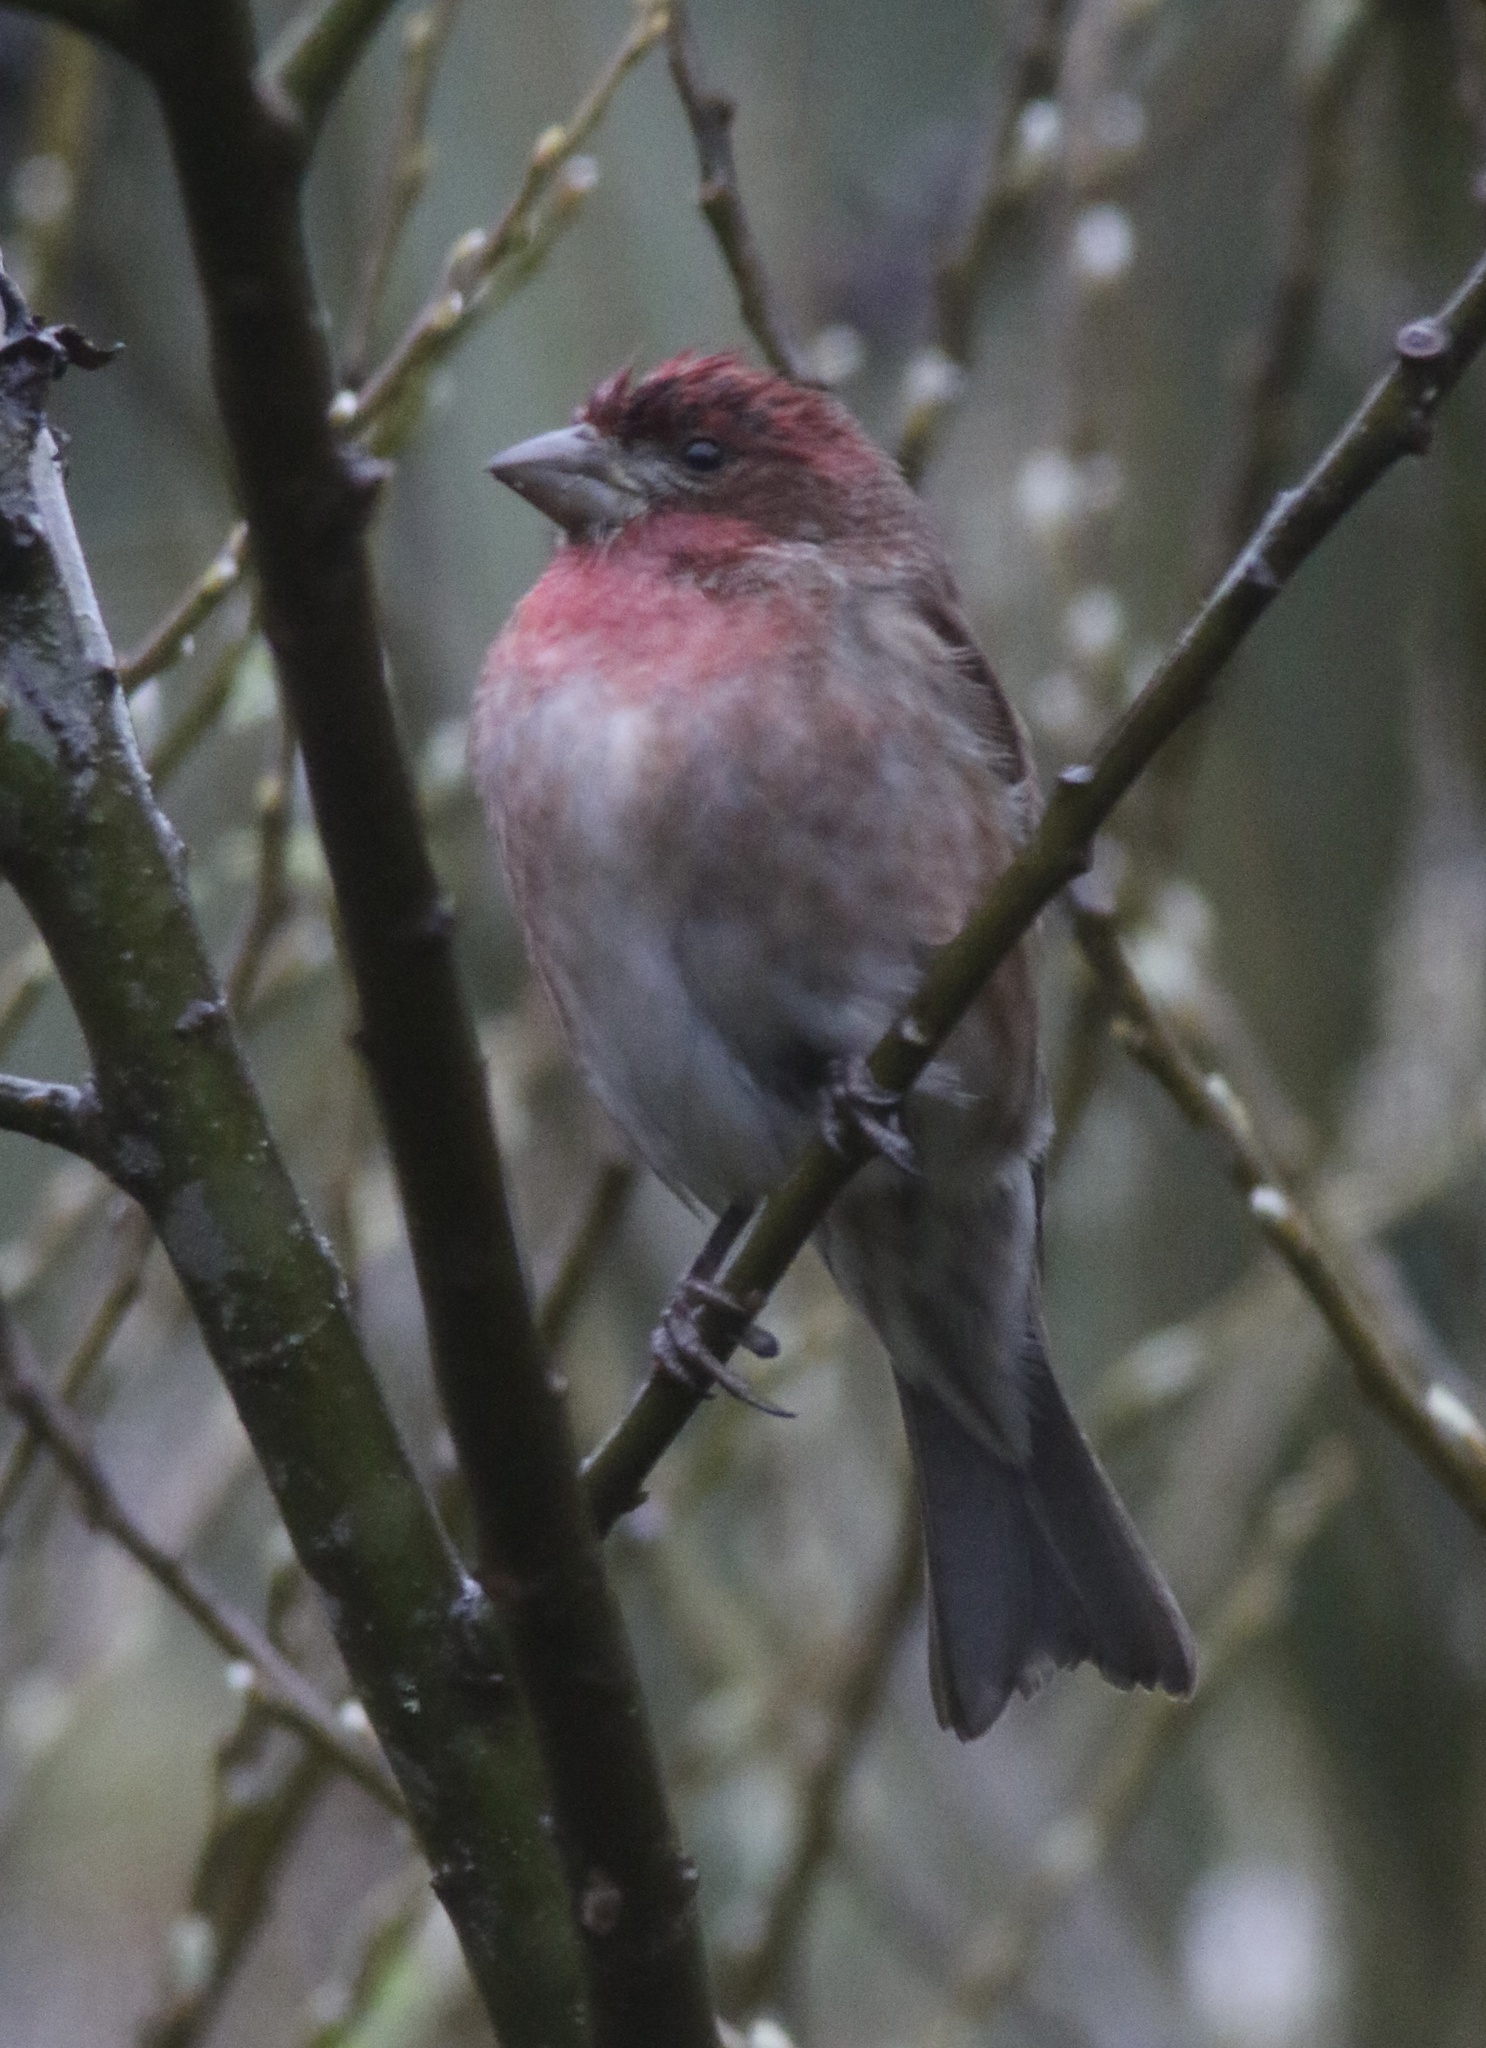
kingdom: Animalia
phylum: Chordata
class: Aves
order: Passeriformes
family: Fringillidae
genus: Haemorhous
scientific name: Haemorhous purpureus
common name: Purple finch
